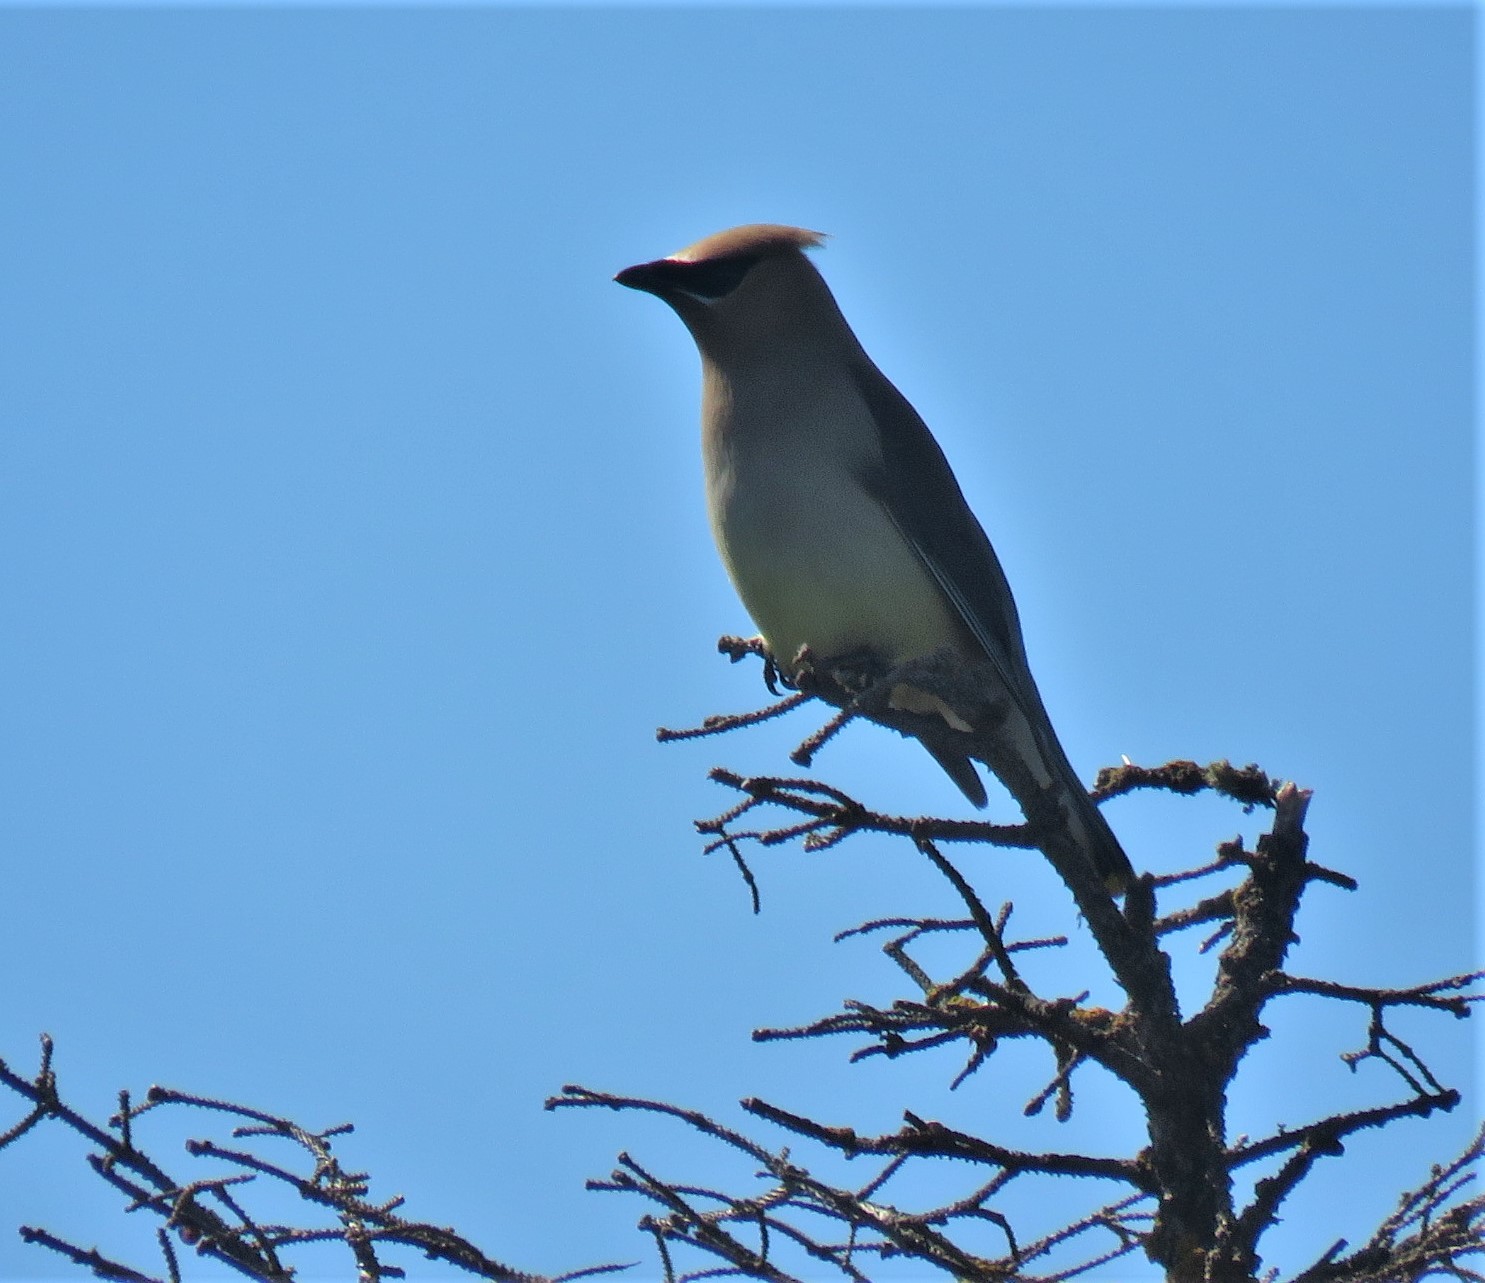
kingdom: Animalia
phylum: Chordata
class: Aves
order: Passeriformes
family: Bombycillidae
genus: Bombycilla
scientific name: Bombycilla cedrorum
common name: Cedar waxwing
